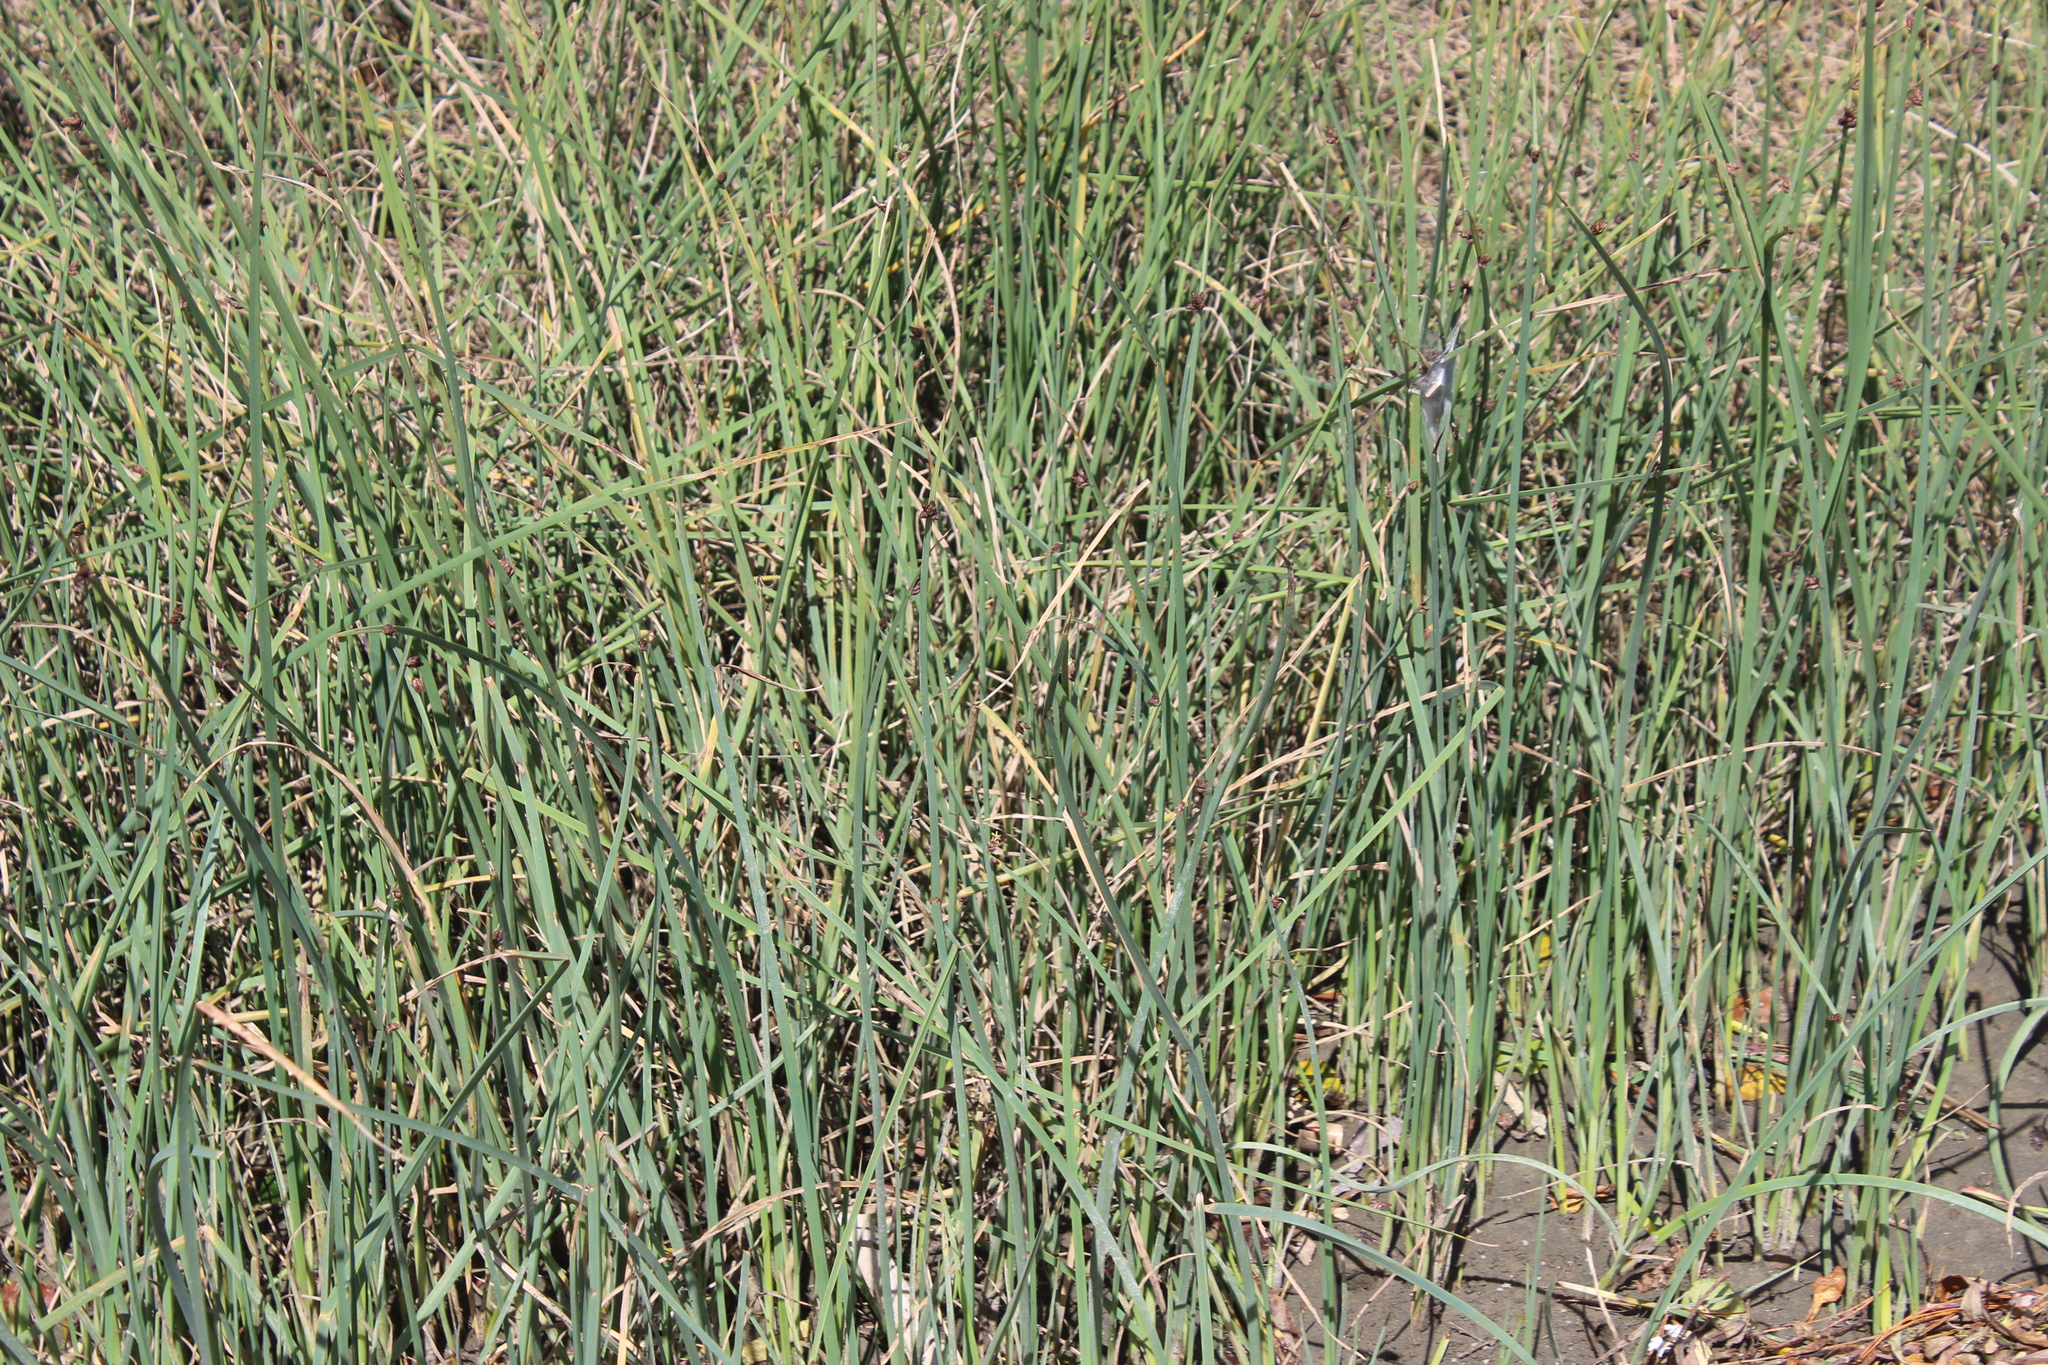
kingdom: Plantae
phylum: Tracheophyta
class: Liliopsida
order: Poales
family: Cyperaceae
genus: Schoenoplectus
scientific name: Schoenoplectus pungens
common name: Sharp club-rush
